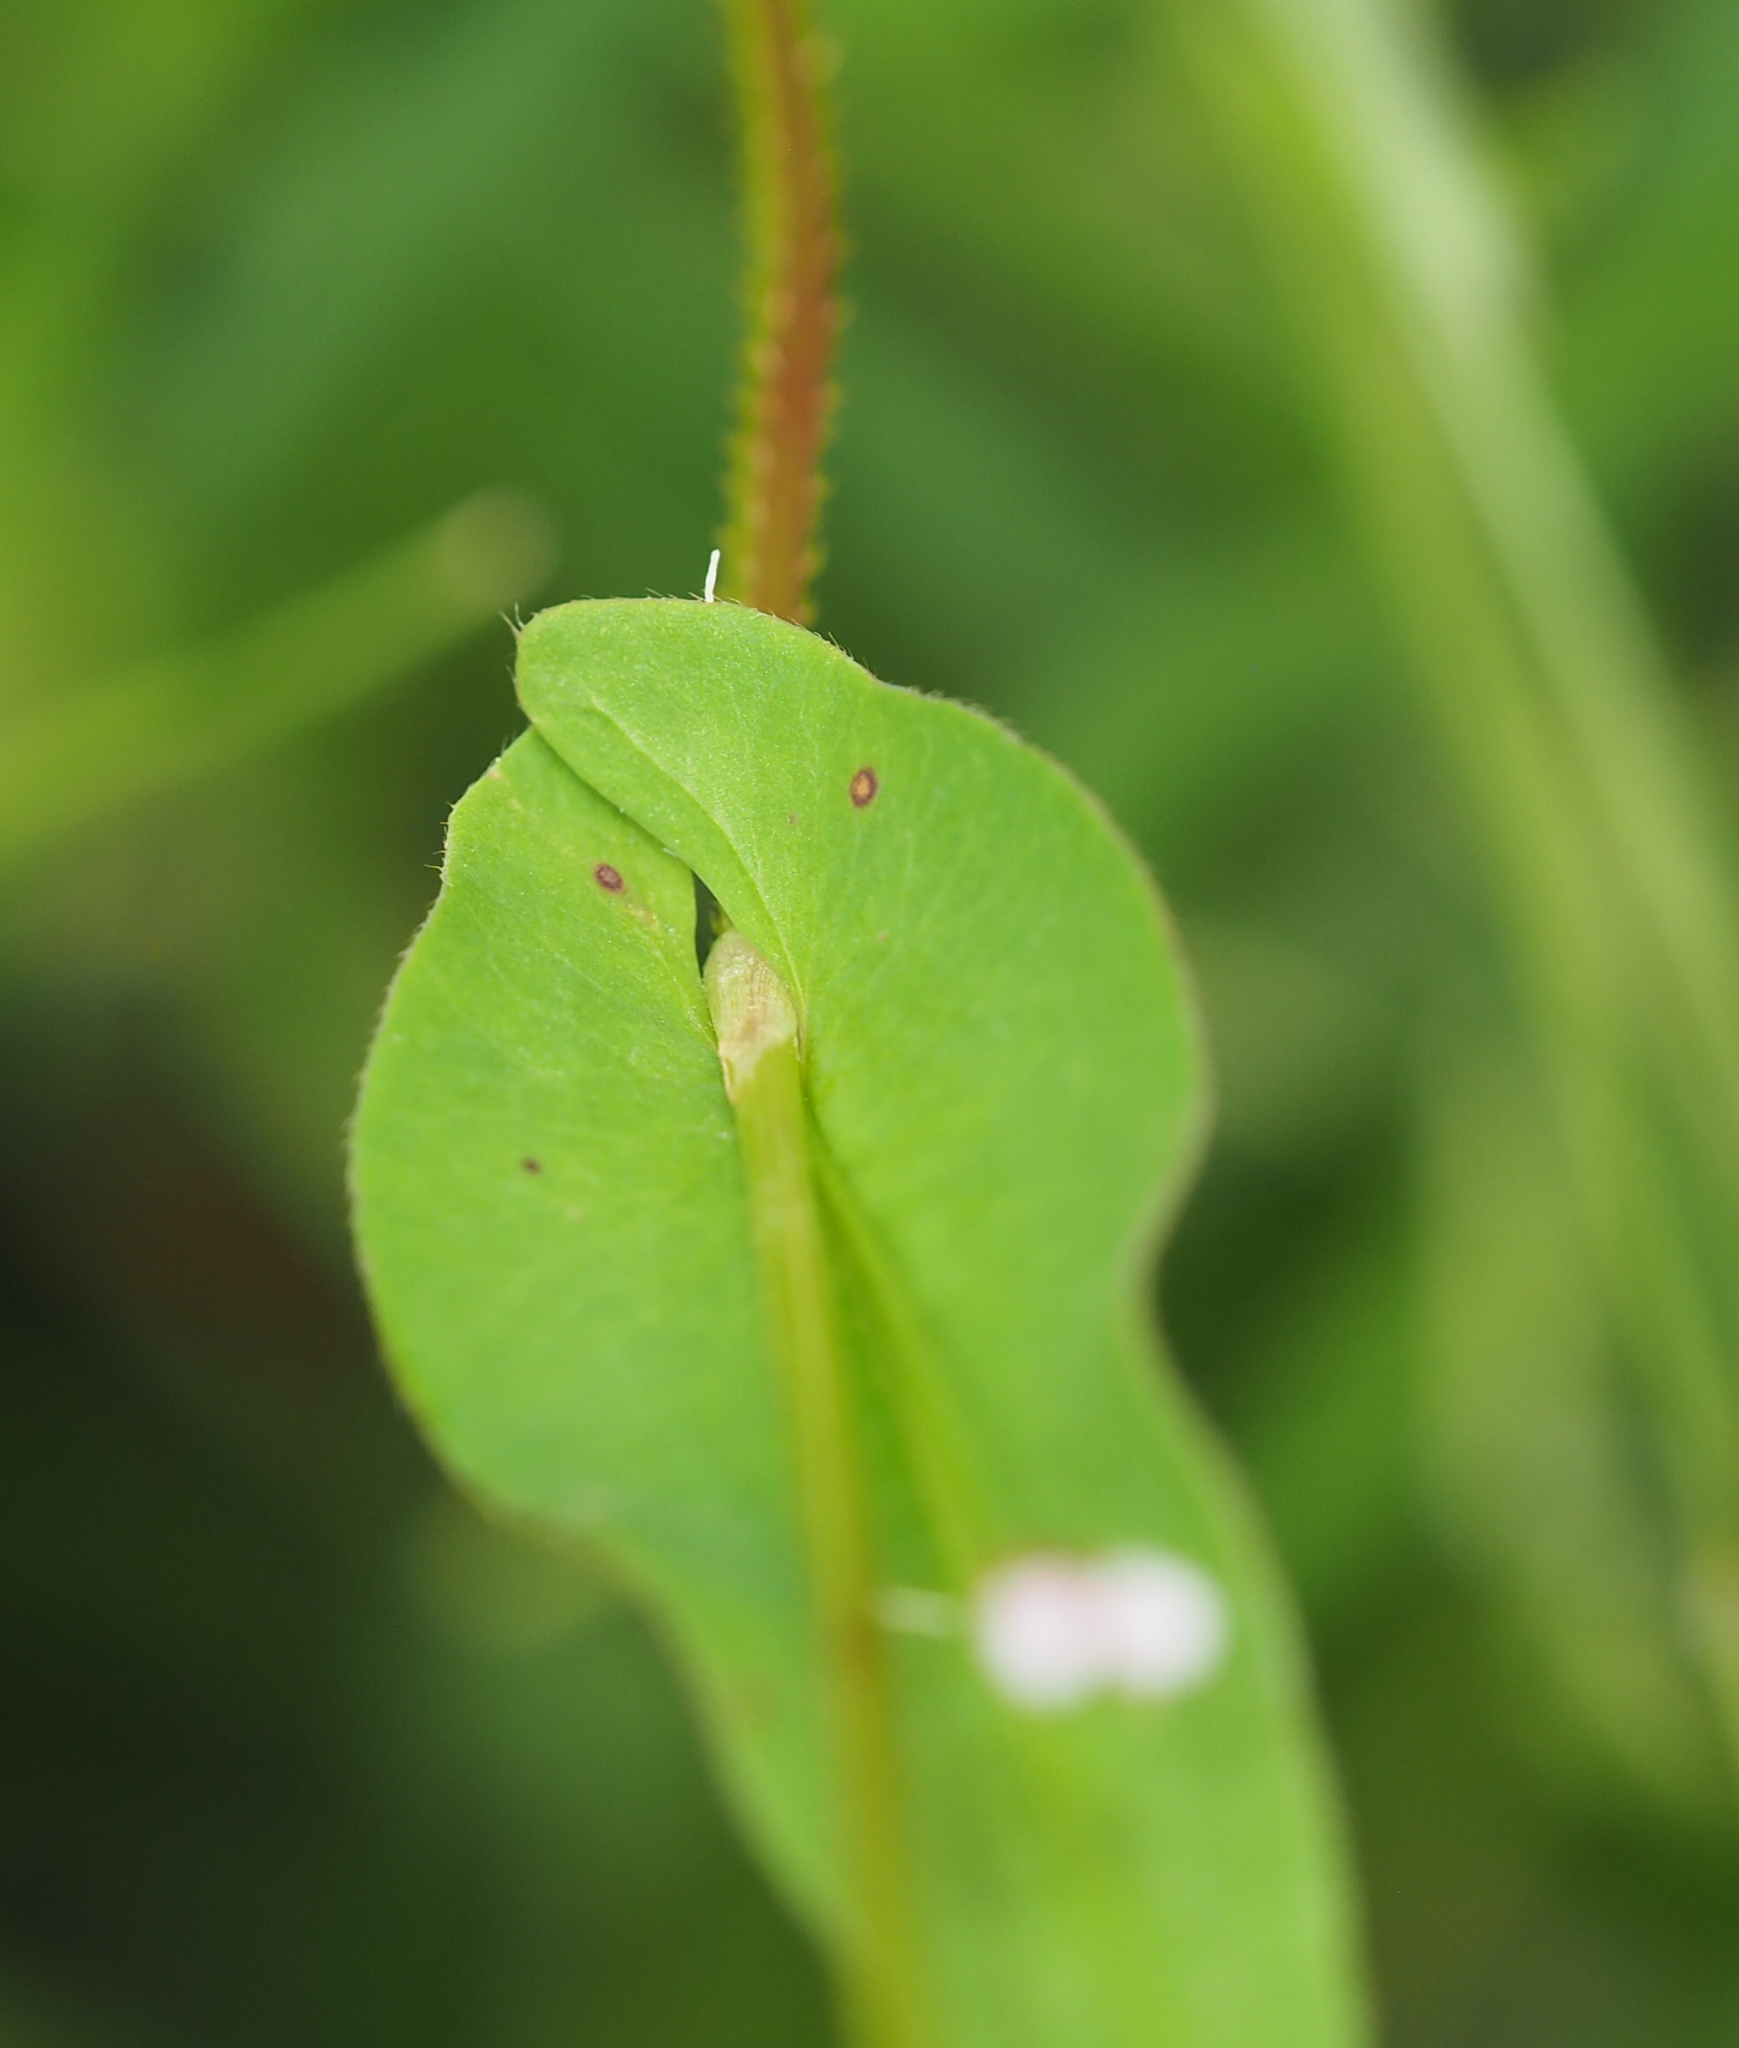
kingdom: Plantae
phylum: Tracheophyta
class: Magnoliopsida
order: Caryophyllales
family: Polygonaceae
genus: Persicaria
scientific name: Persicaria sagittata
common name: American tearthumb
